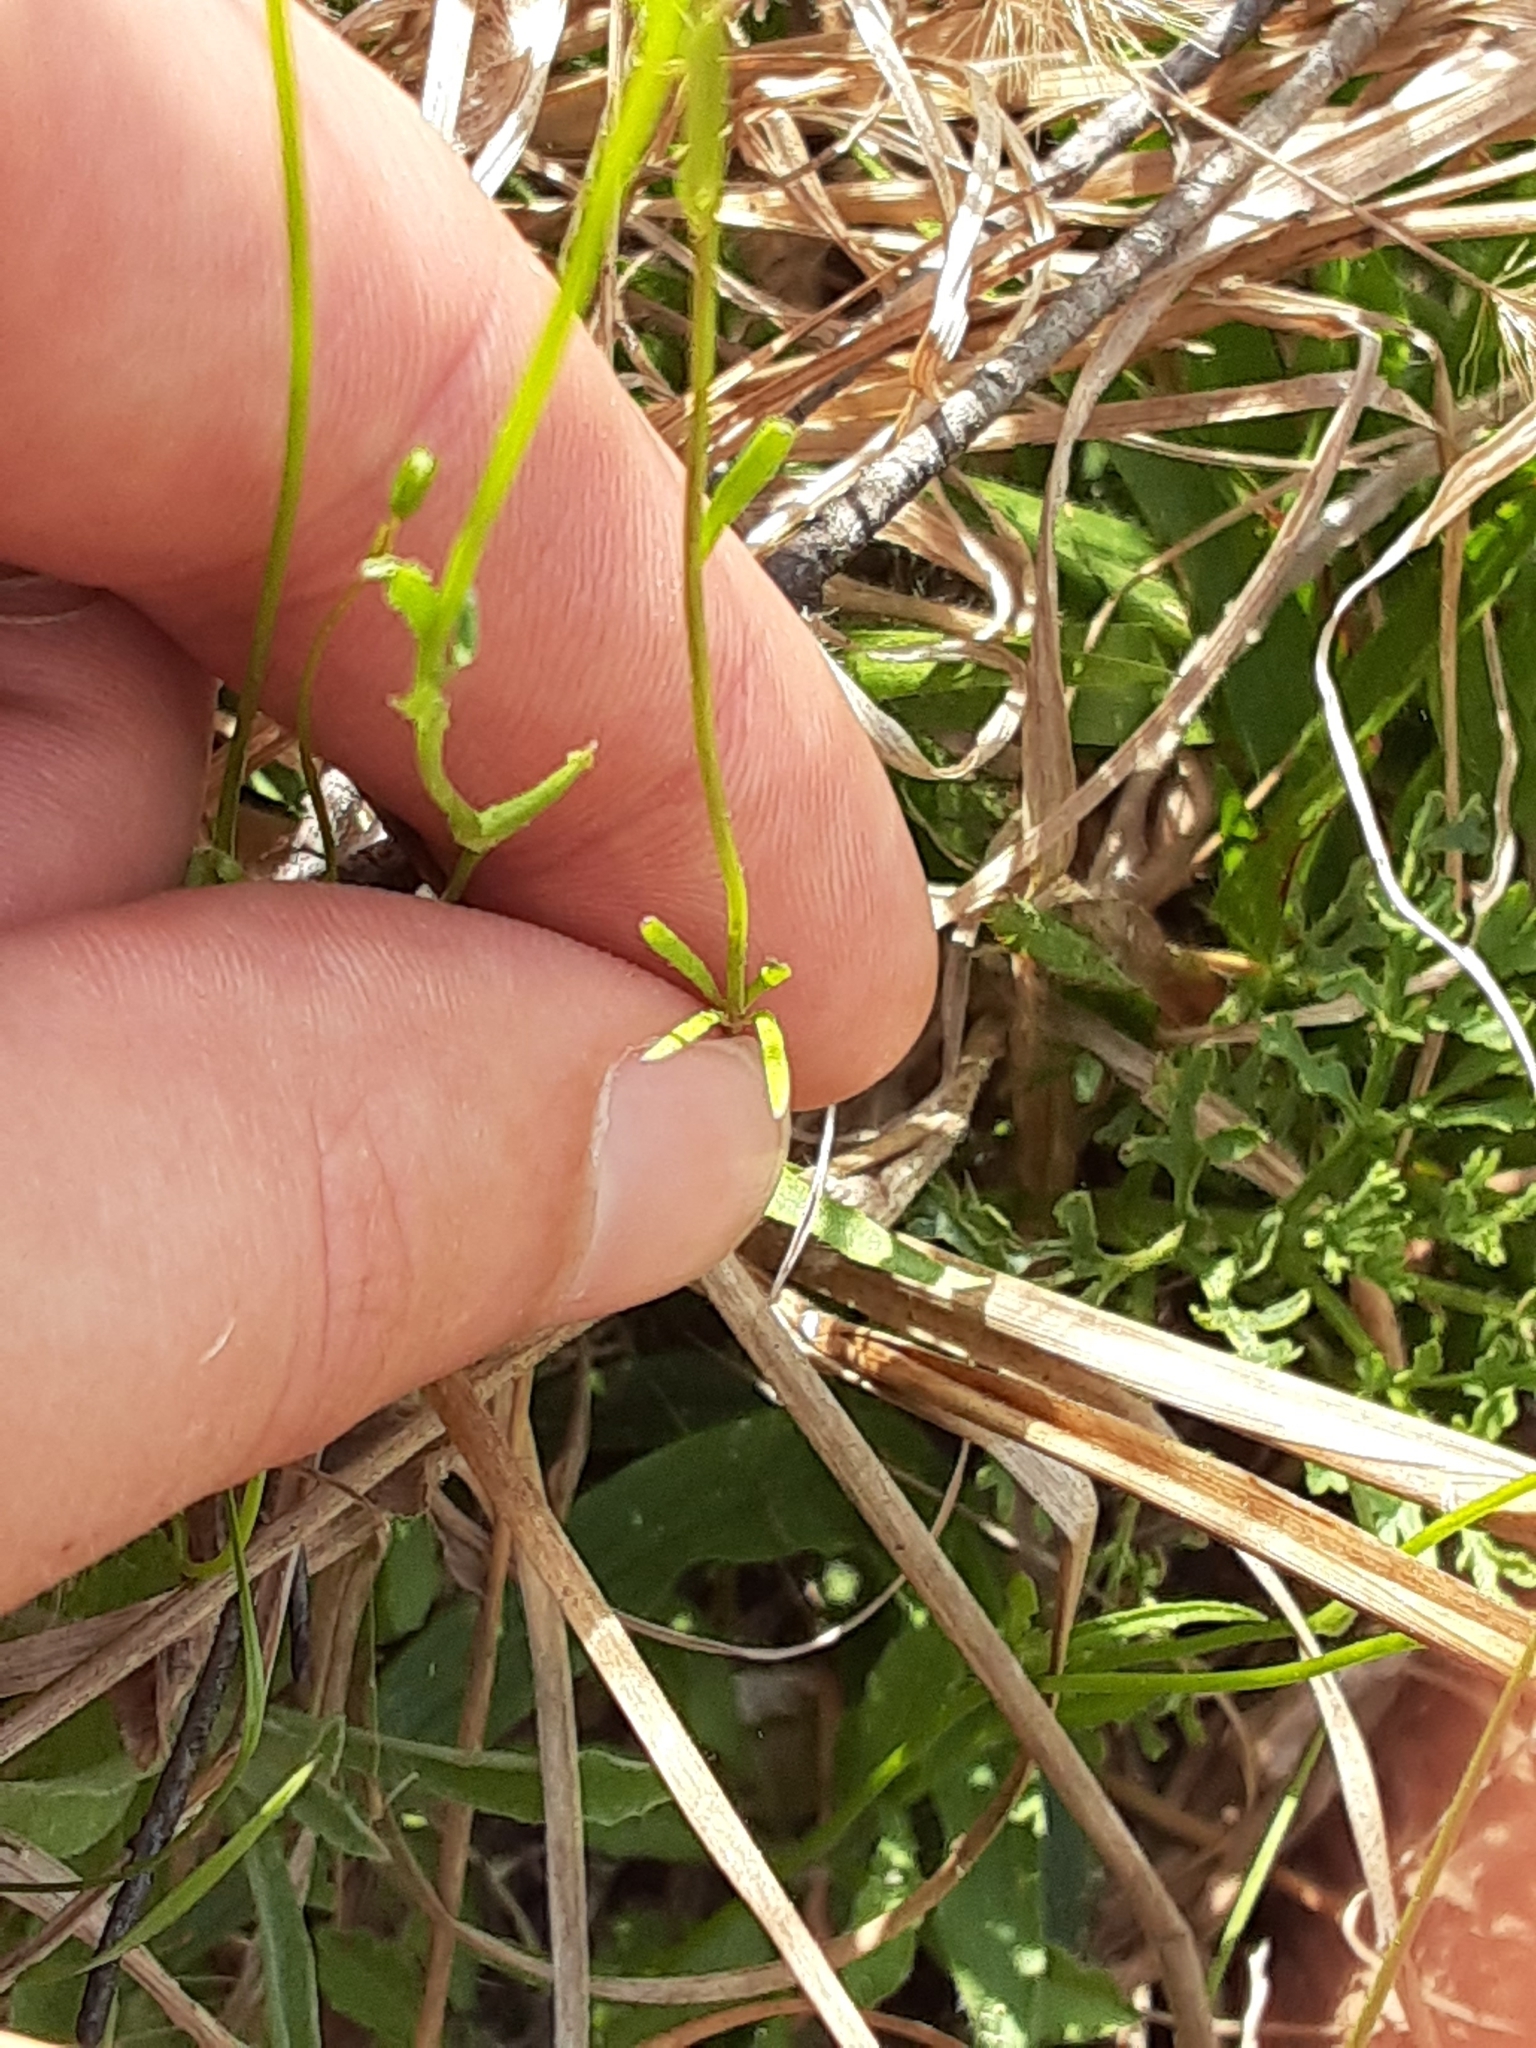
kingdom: Plantae
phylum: Tracheophyta
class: Magnoliopsida
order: Asterales
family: Campanulaceae
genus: Wahlenbergia
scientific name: Wahlenbergia marginata
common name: Southern rockbell
